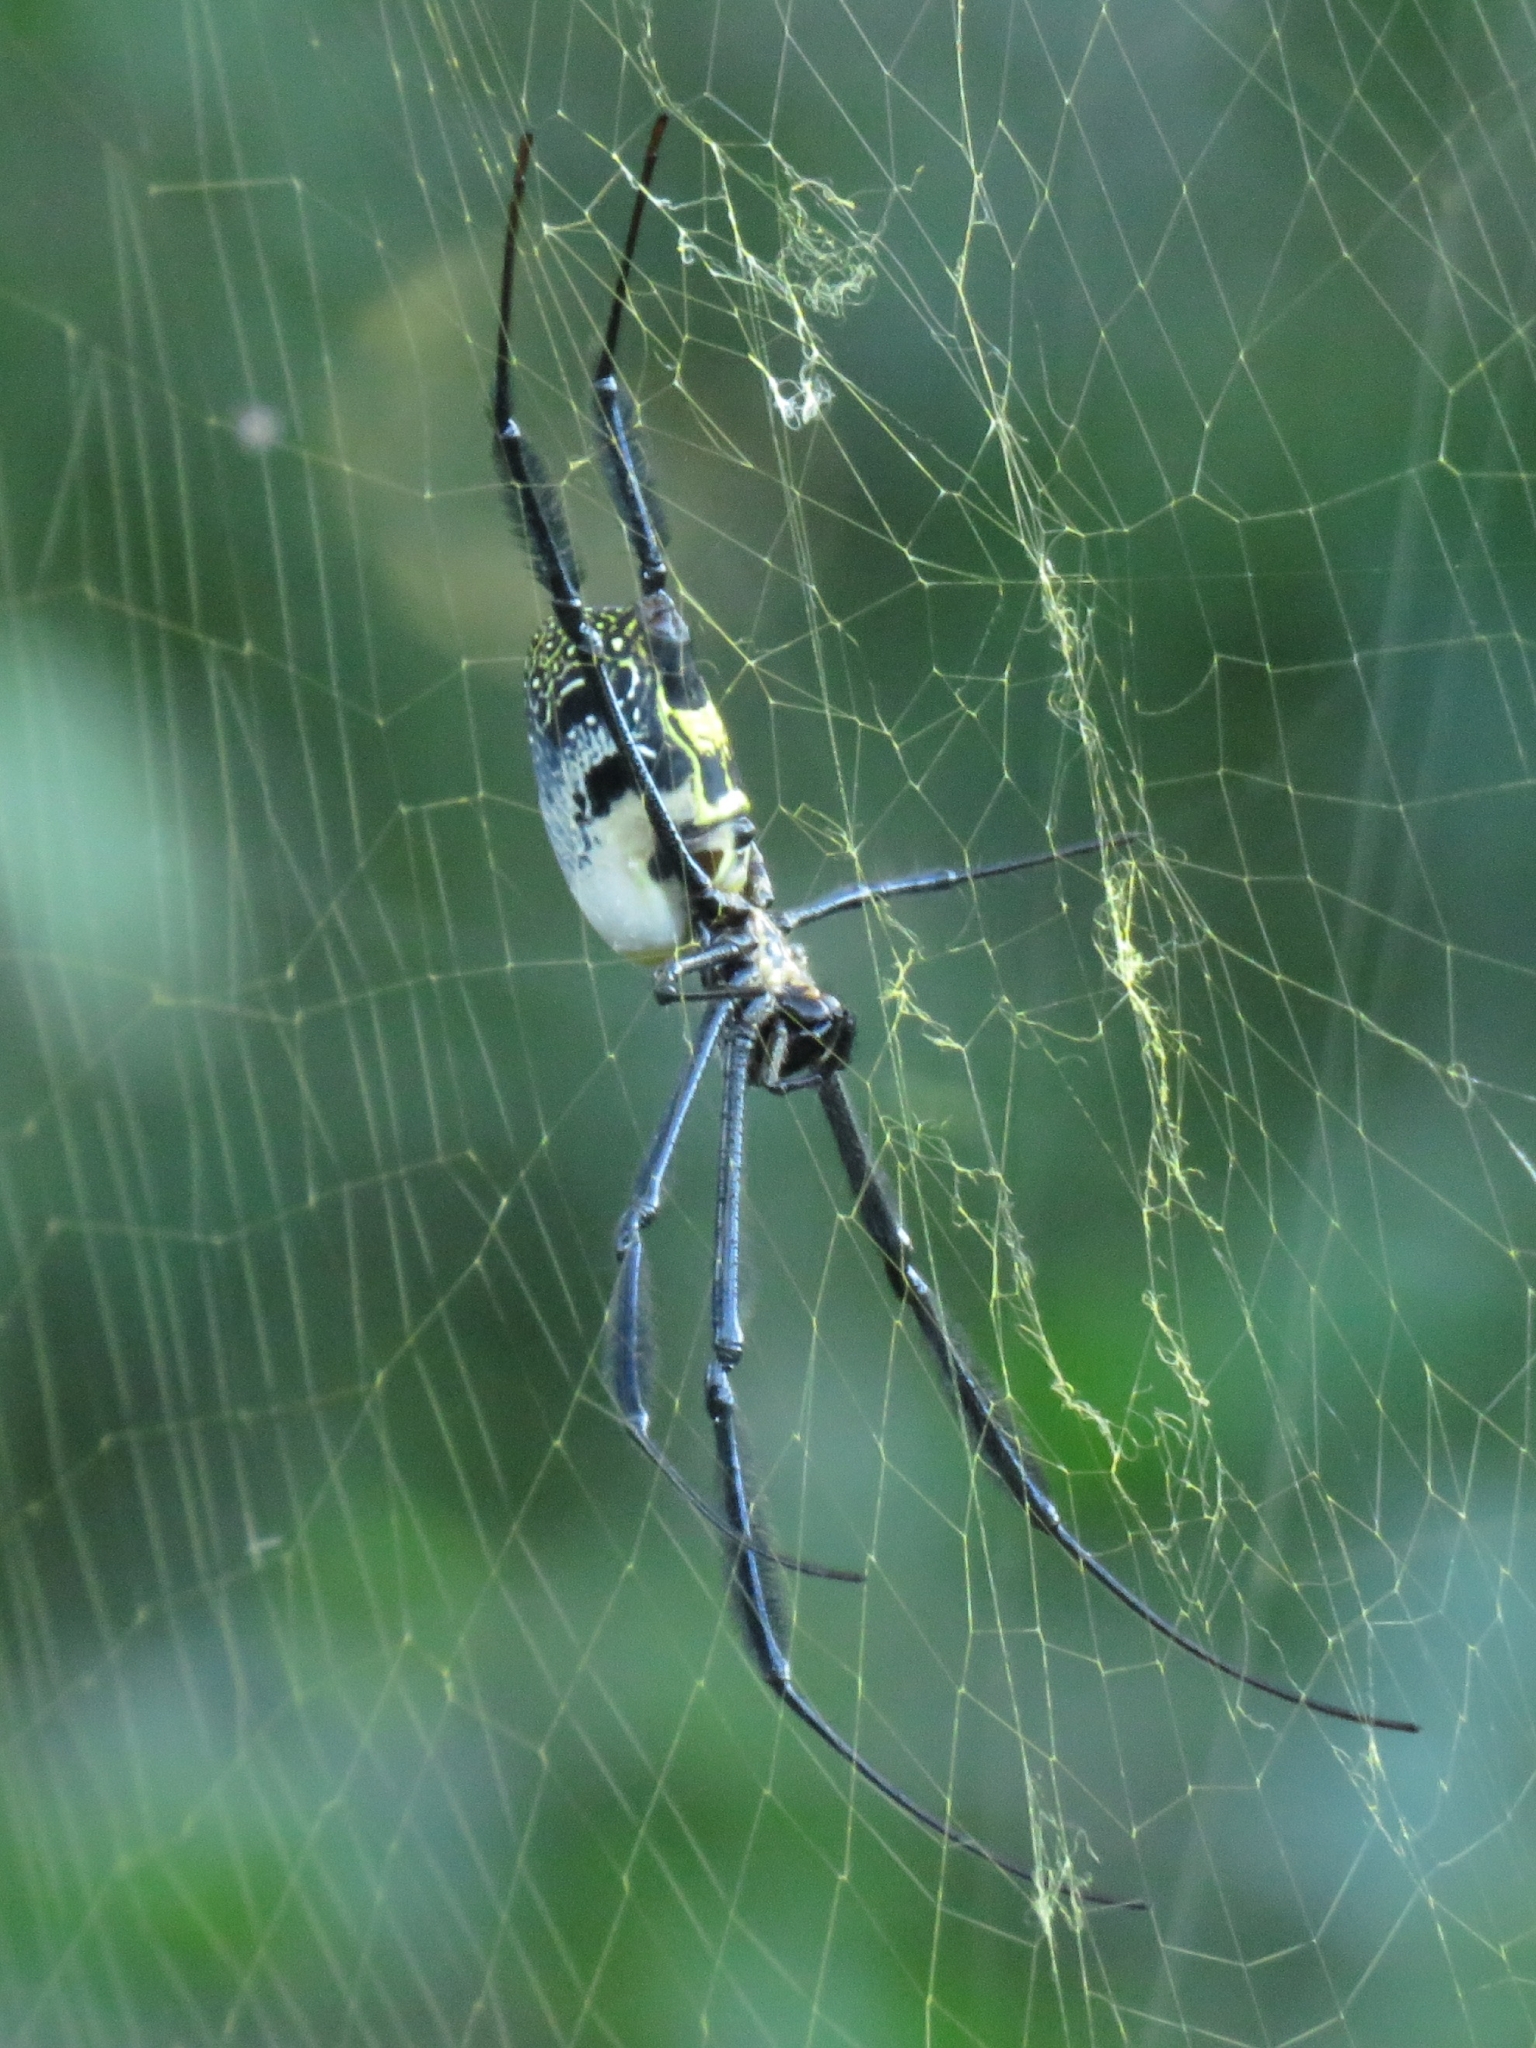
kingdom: Animalia
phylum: Arthropoda
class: Arachnida
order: Araneae
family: Araneidae
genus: Trichonephila
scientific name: Trichonephila fenestrata
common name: Hairy golden orb weaver
